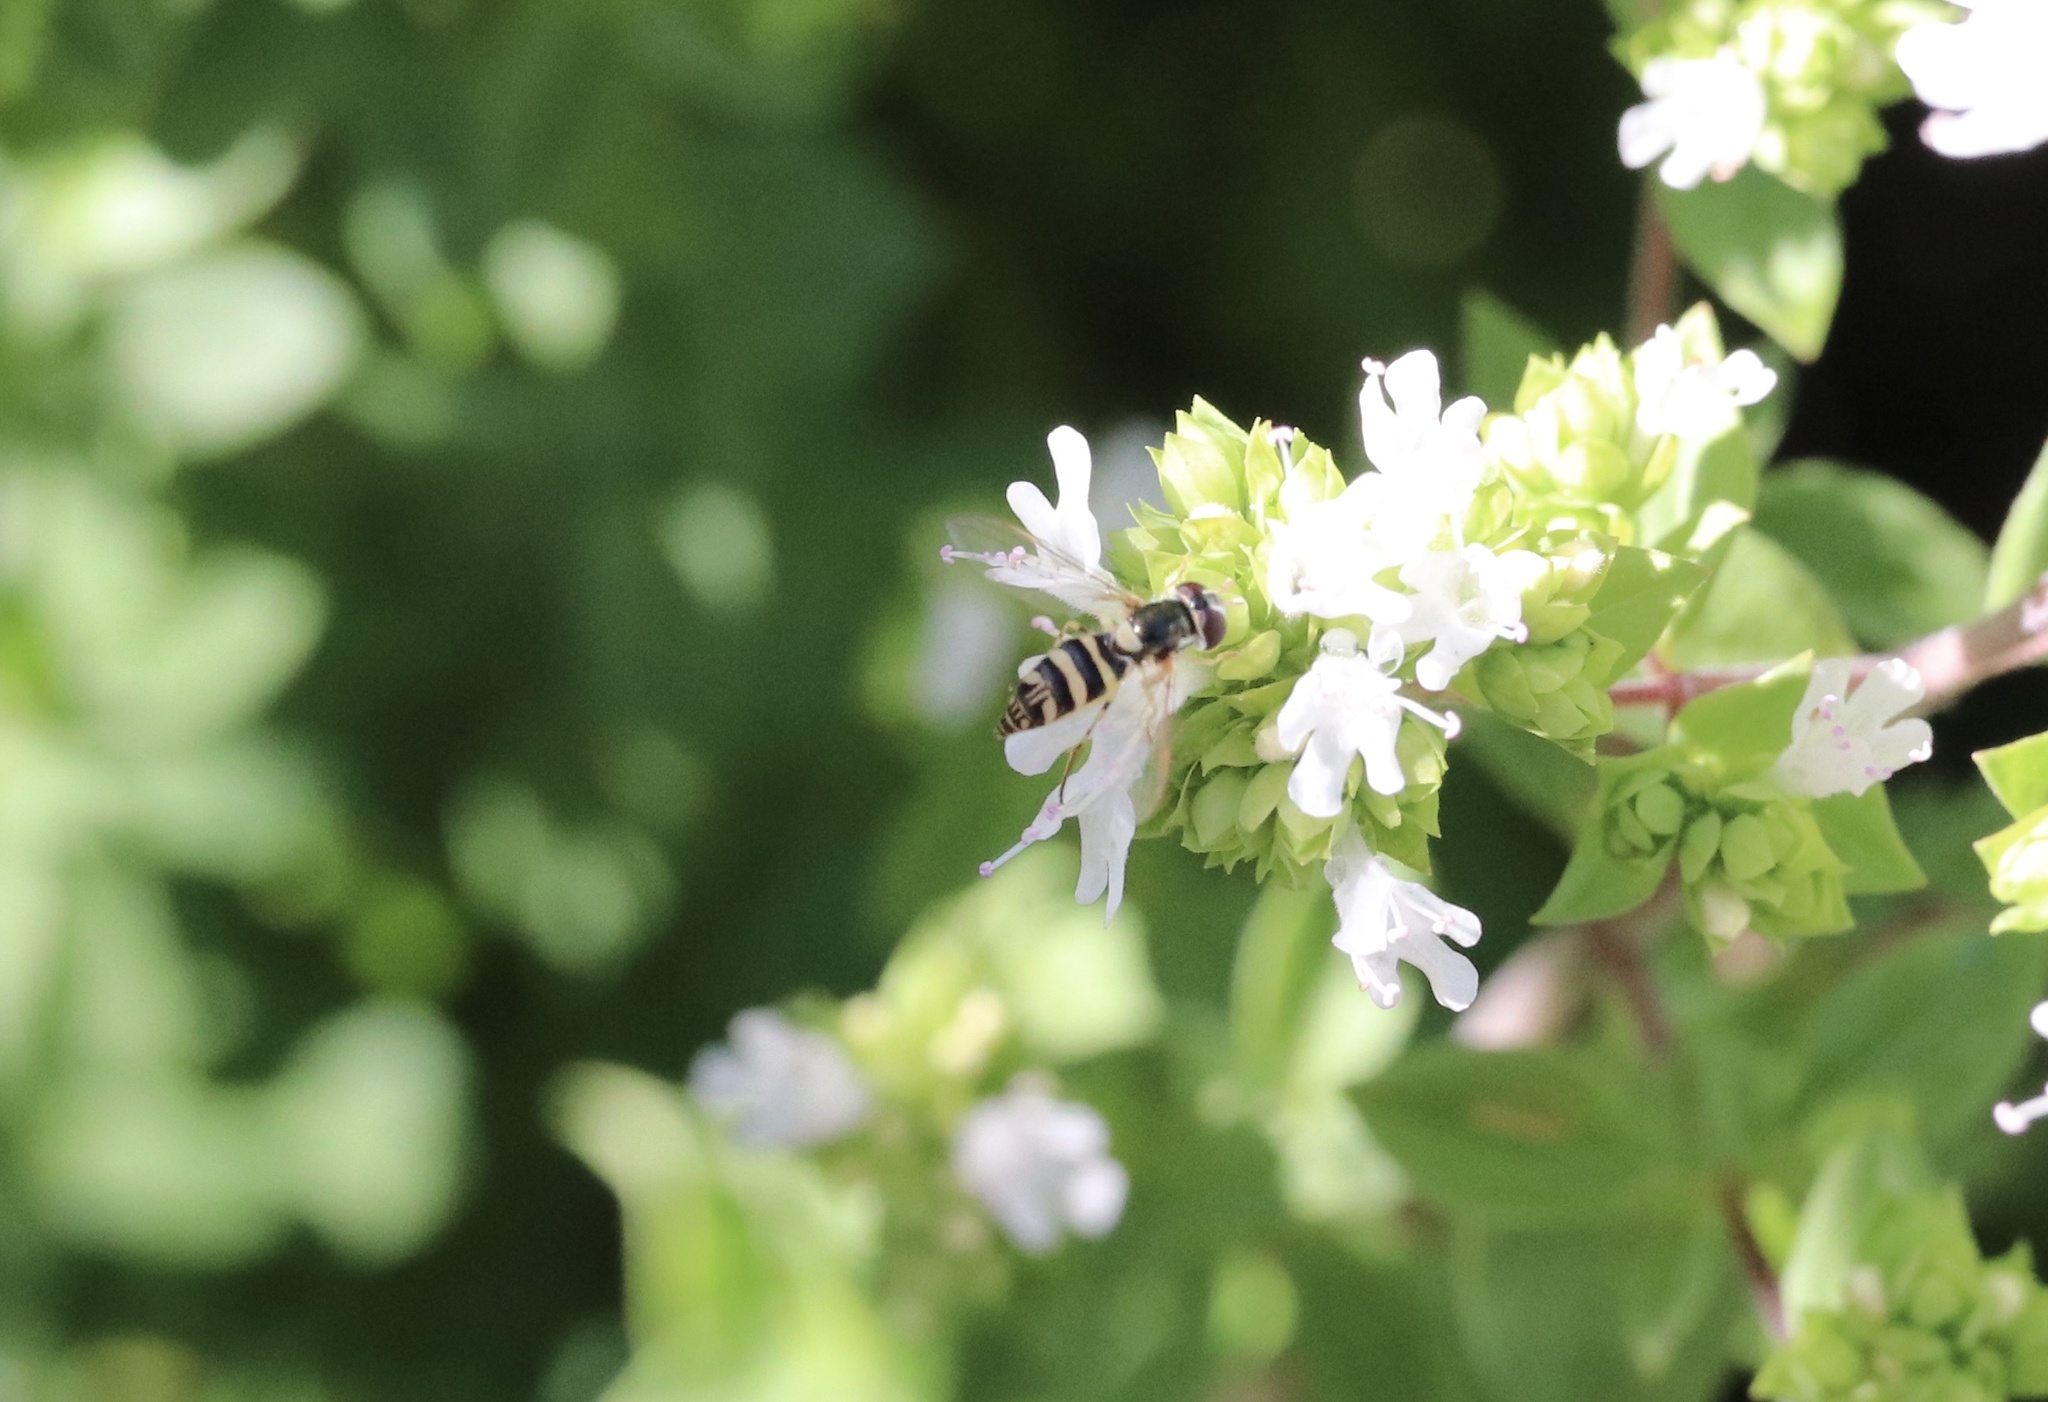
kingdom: Animalia
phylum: Arthropoda
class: Insecta
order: Diptera
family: Syrphidae
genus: Allograpta
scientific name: Allograpta exotica
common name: Syrphid fly
